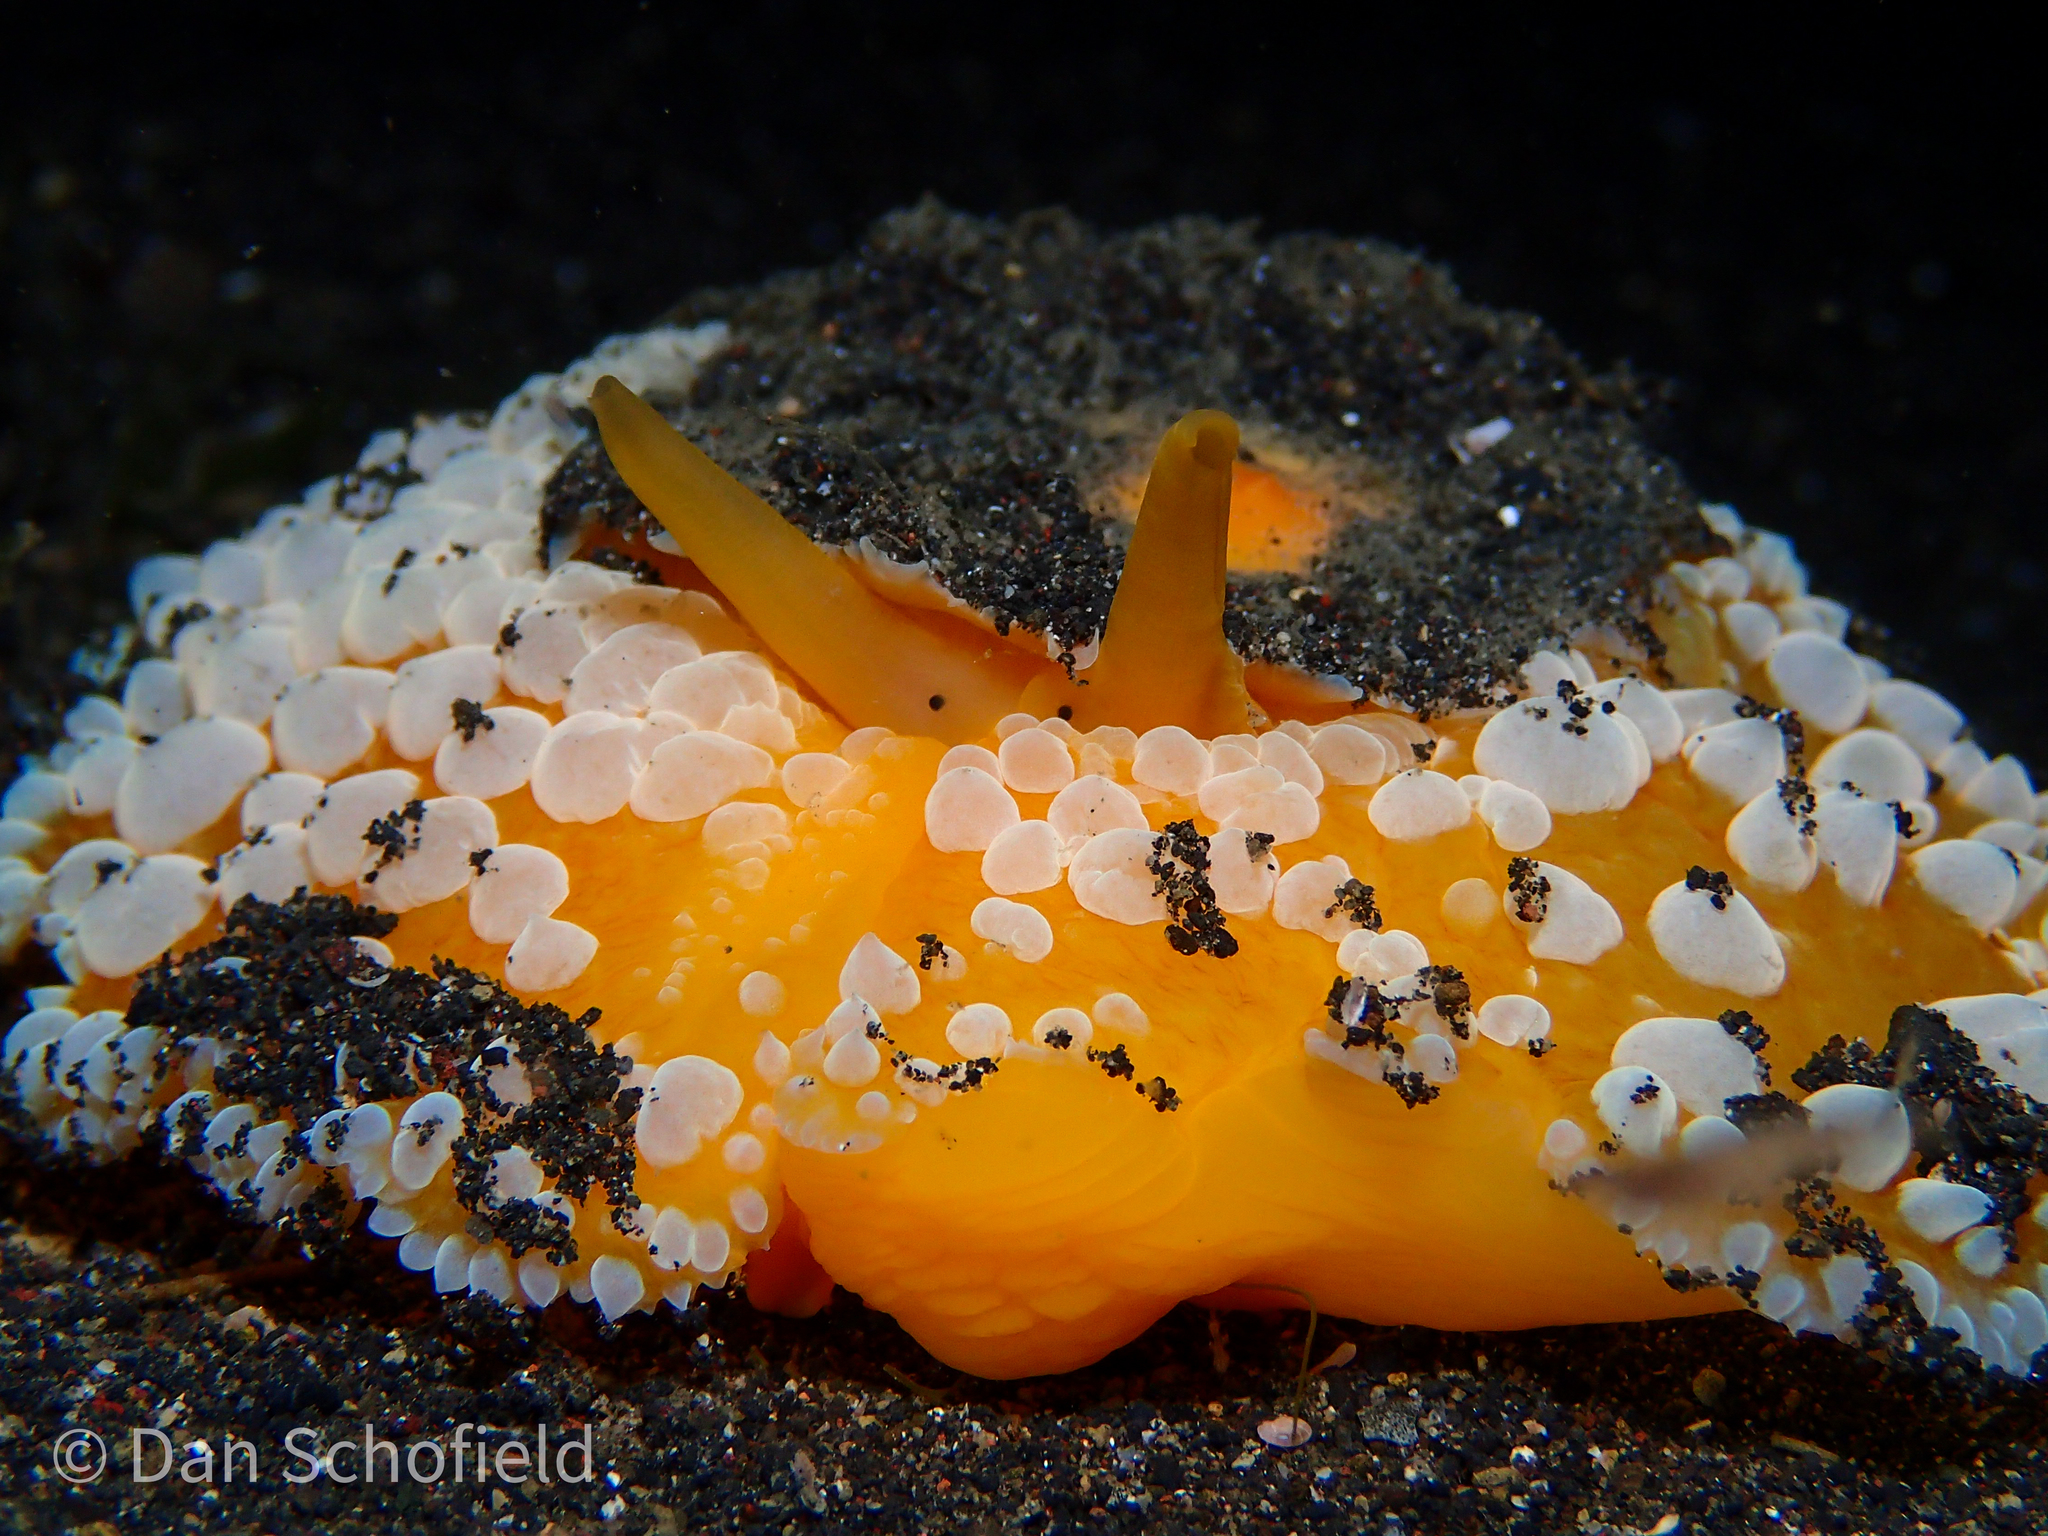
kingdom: Animalia
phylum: Mollusca
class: Gastropoda
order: Umbraculida
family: Umbraculidae
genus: Umbraculum
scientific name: Umbraculum umbraculum
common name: Atlantic umbrella slug
